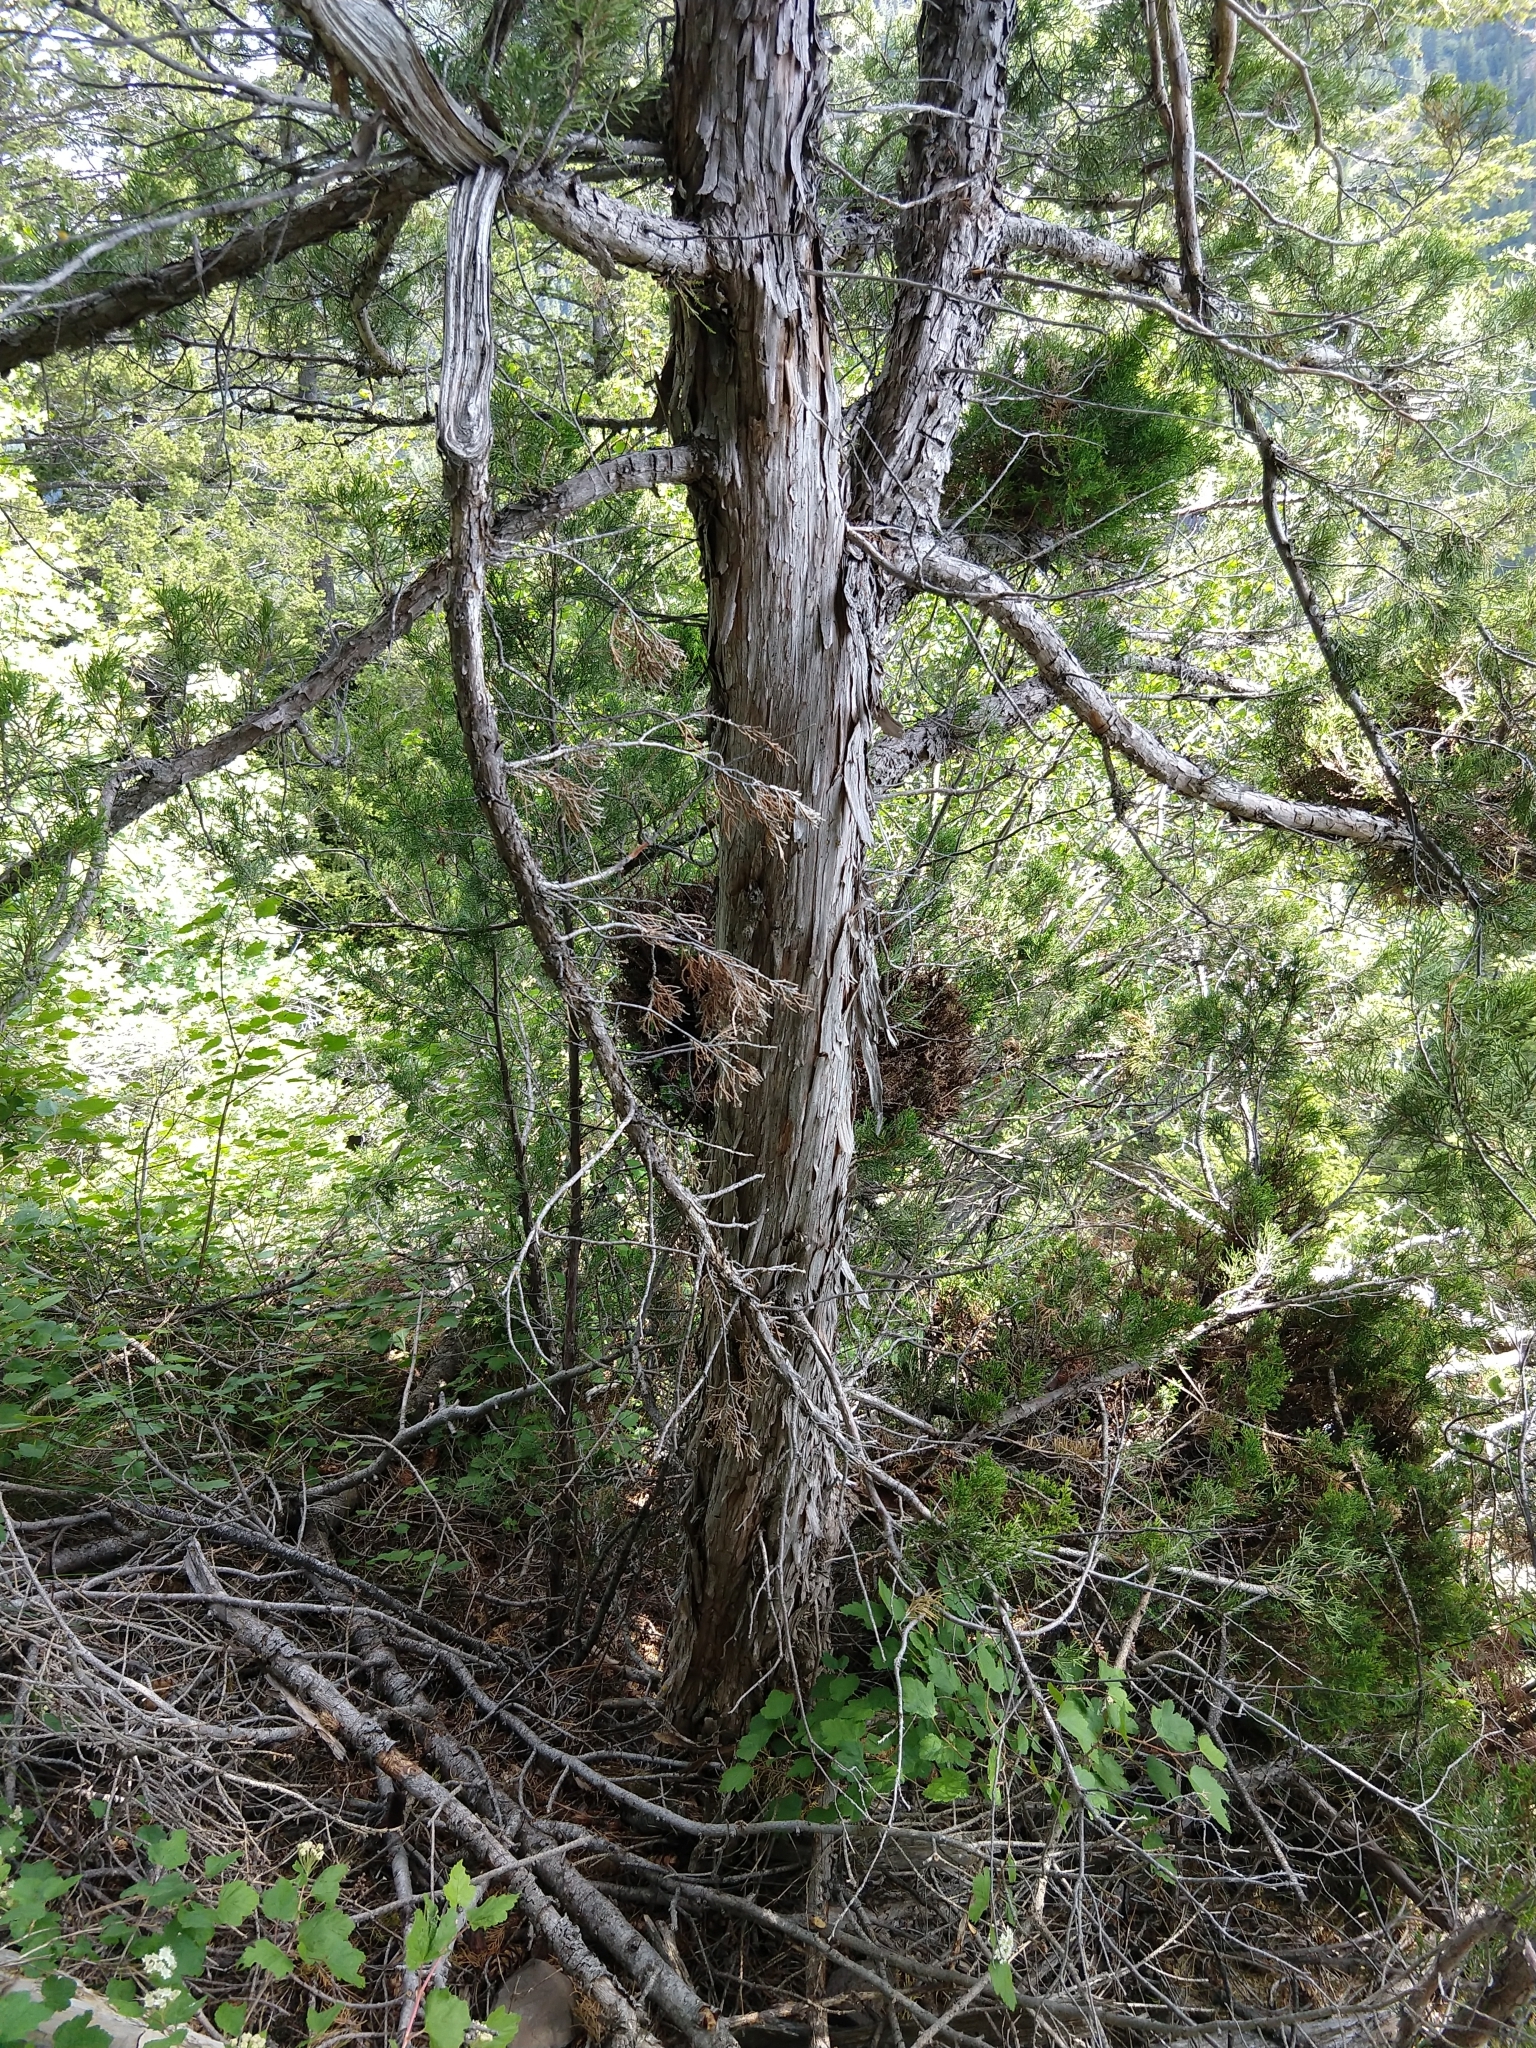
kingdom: Plantae
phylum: Tracheophyta
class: Pinopsida
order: Pinales
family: Cupressaceae
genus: Juniperus
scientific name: Juniperus scopulorum
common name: Rocky mountain juniper
